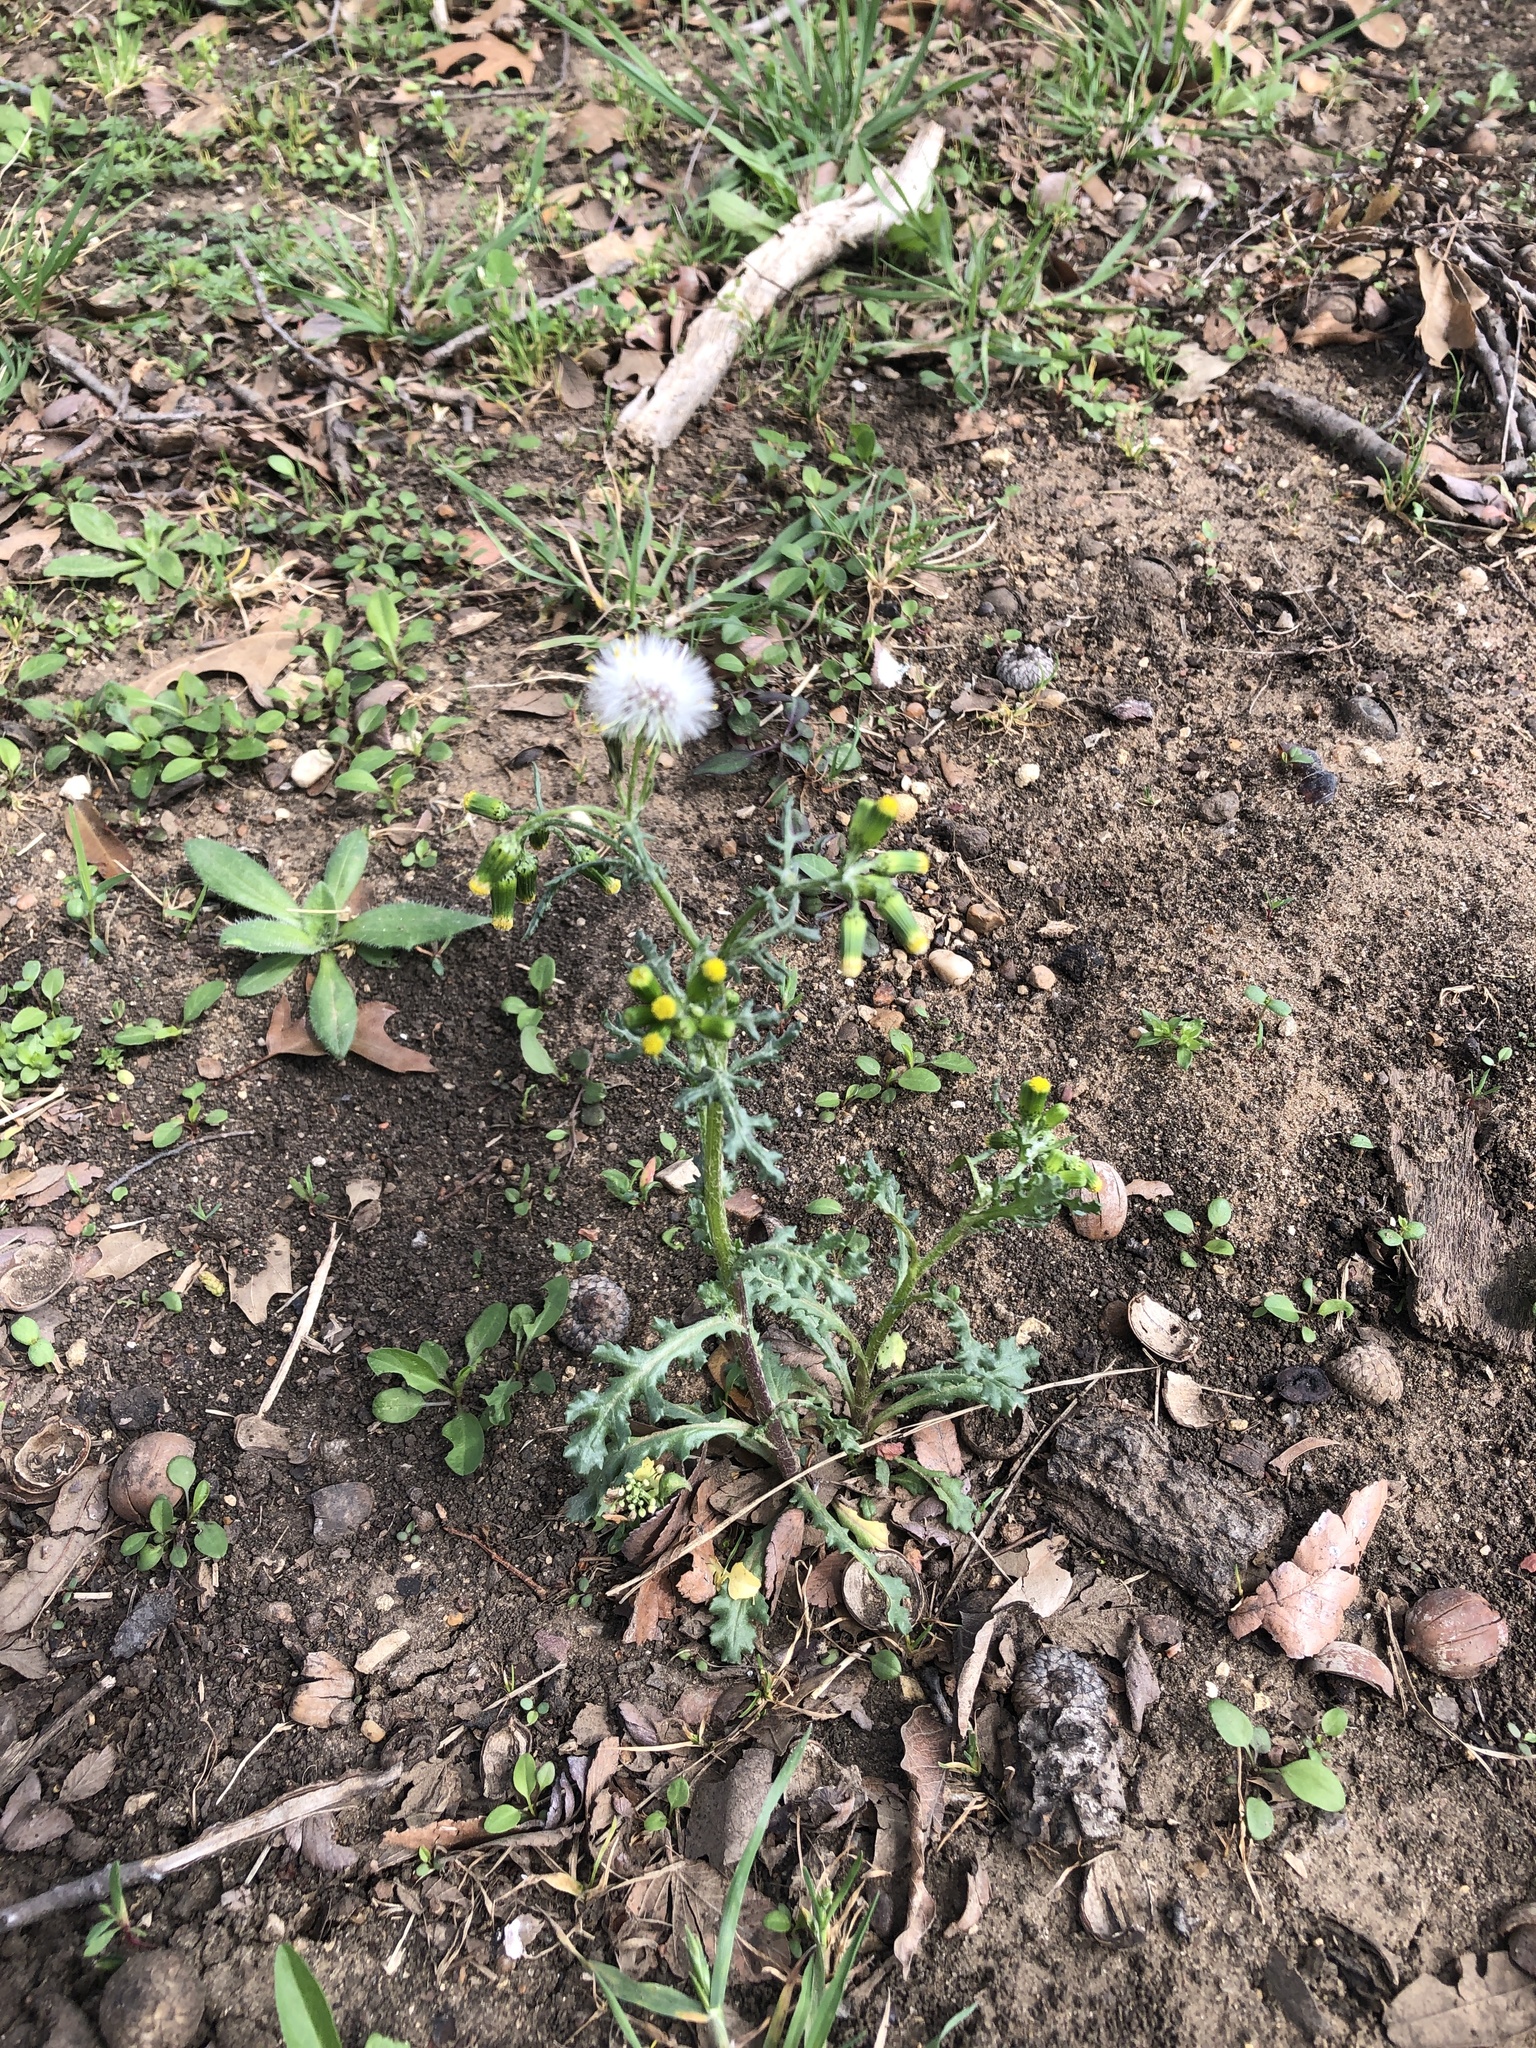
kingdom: Plantae
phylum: Tracheophyta
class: Magnoliopsida
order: Asterales
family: Asteraceae
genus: Senecio
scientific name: Senecio vulgaris
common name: Old-man-in-the-spring
